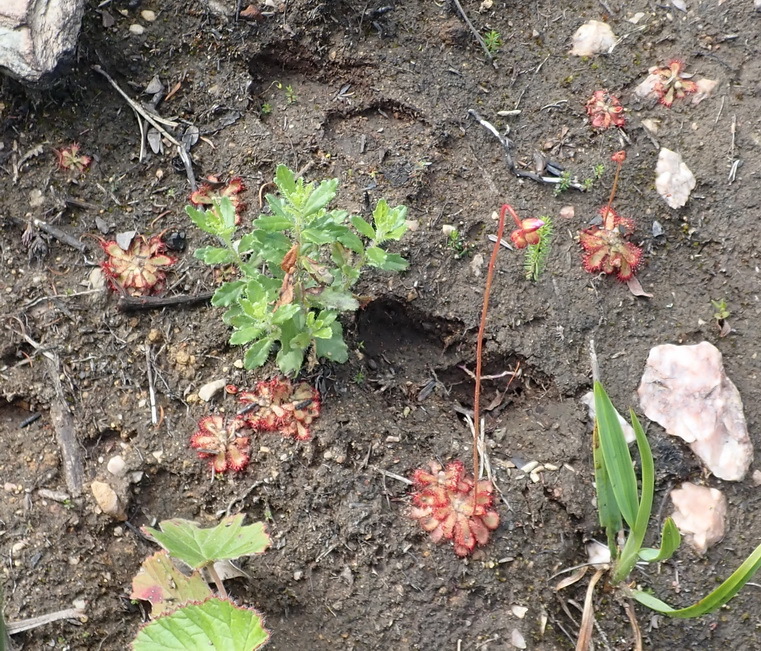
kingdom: Plantae
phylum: Tracheophyta
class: Magnoliopsida
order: Caryophyllales
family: Droseraceae
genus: Drosera
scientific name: Drosera aliciae
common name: Alice sundew
